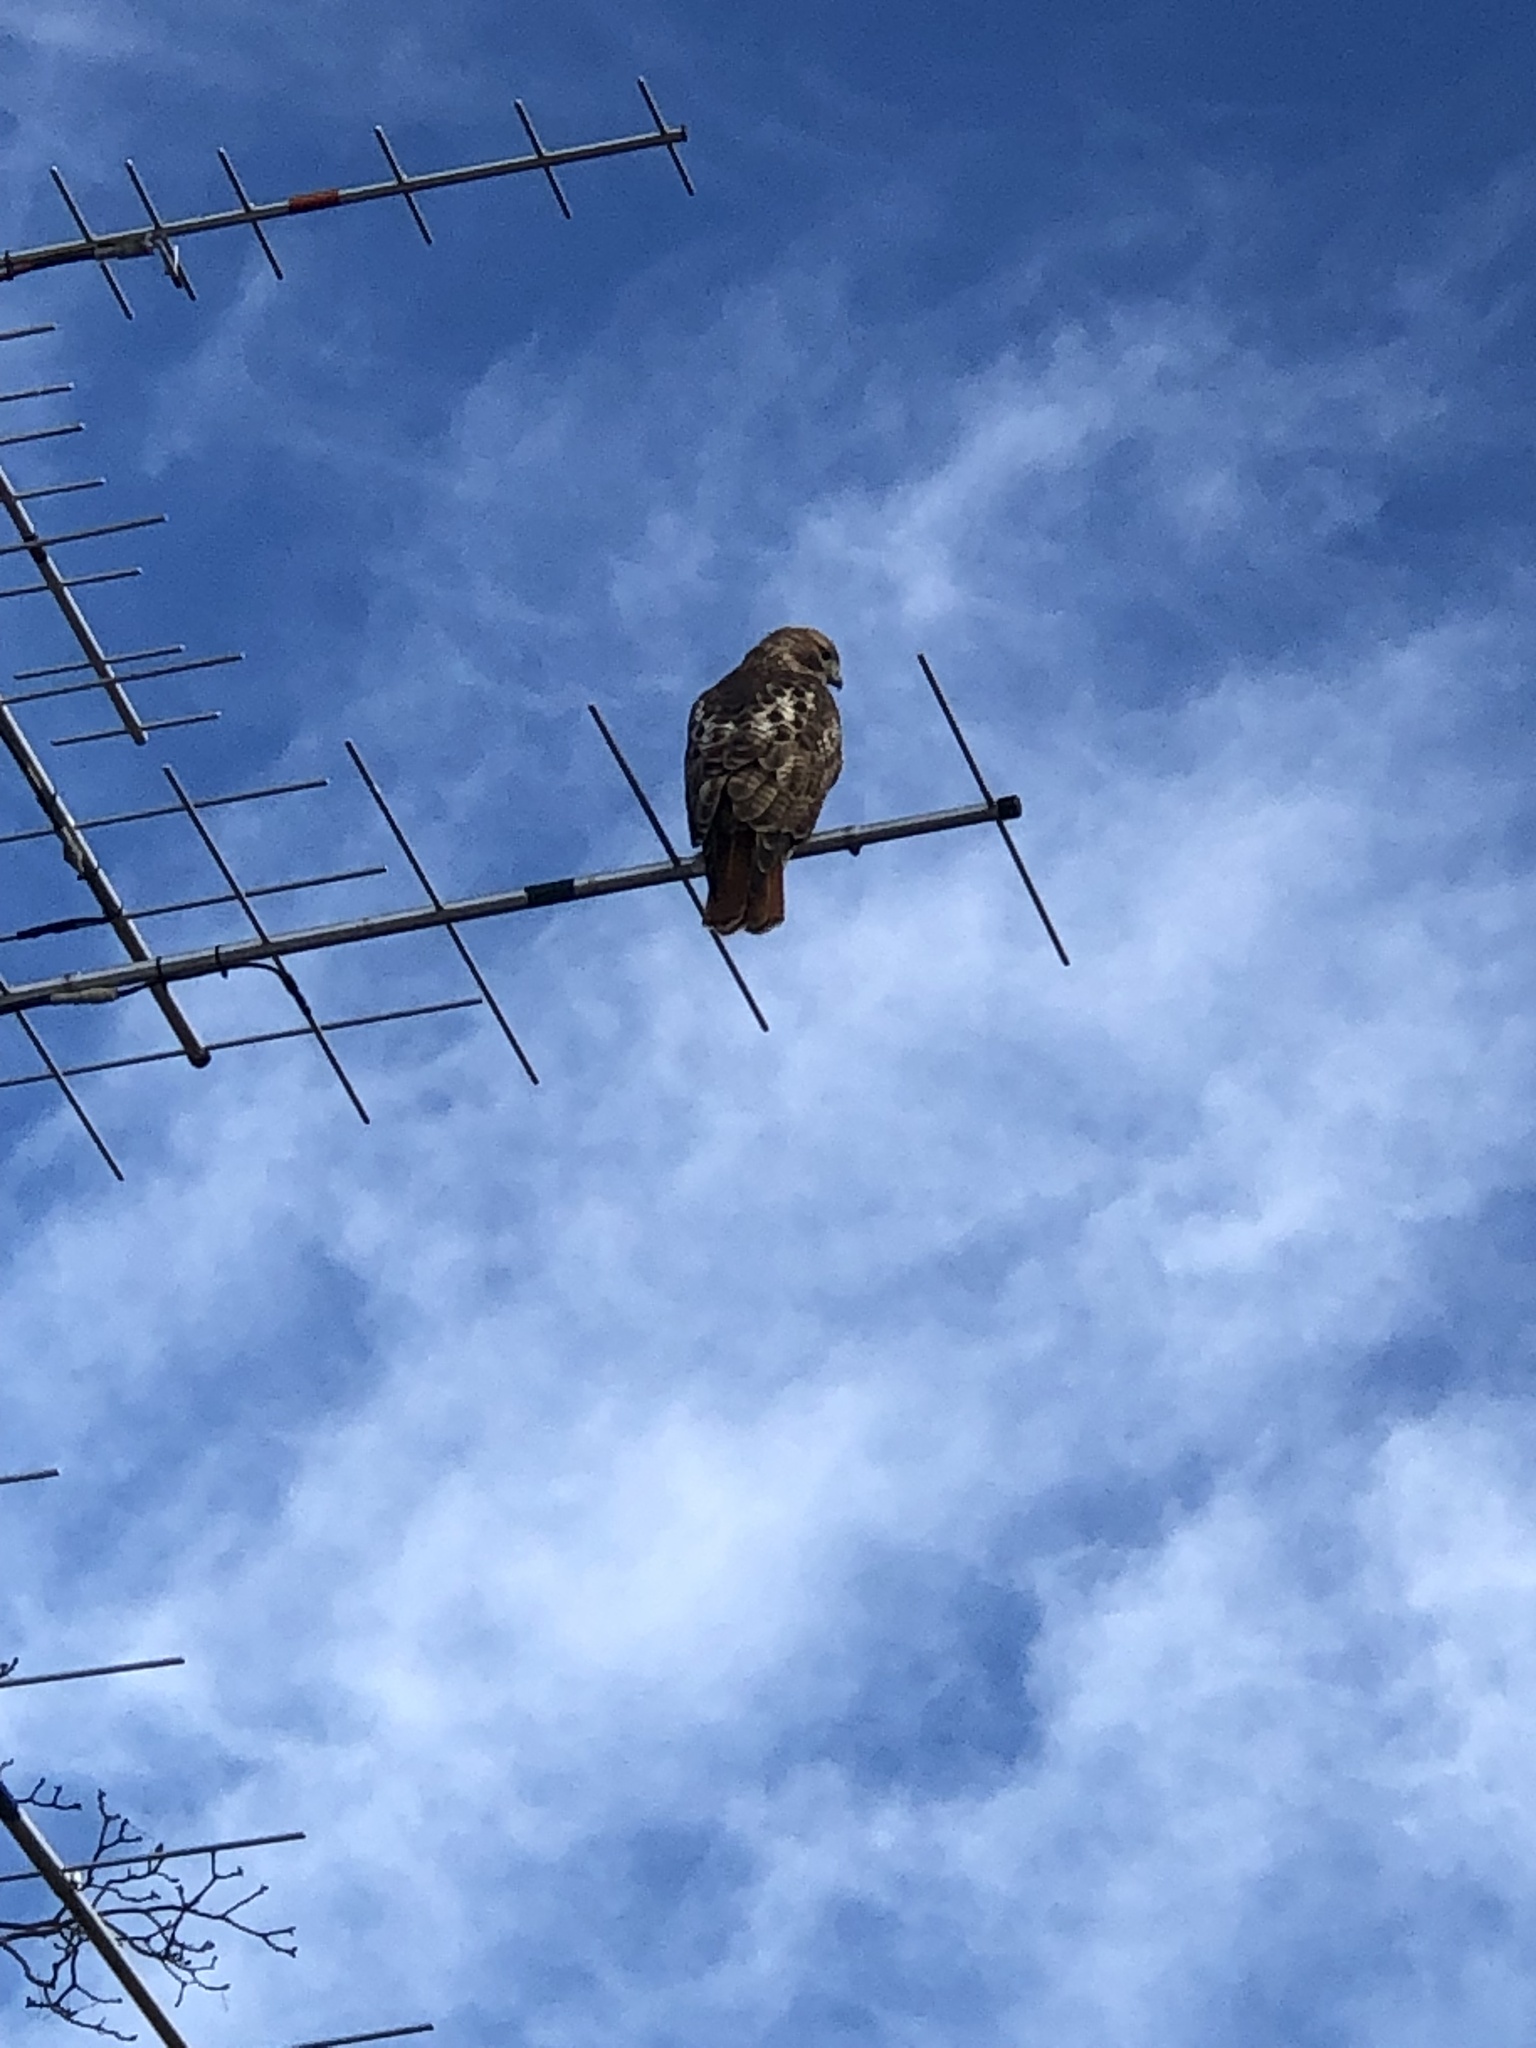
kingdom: Animalia
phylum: Chordata
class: Aves
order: Accipitriformes
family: Accipitridae
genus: Buteo
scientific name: Buteo jamaicensis
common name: Red-tailed hawk
